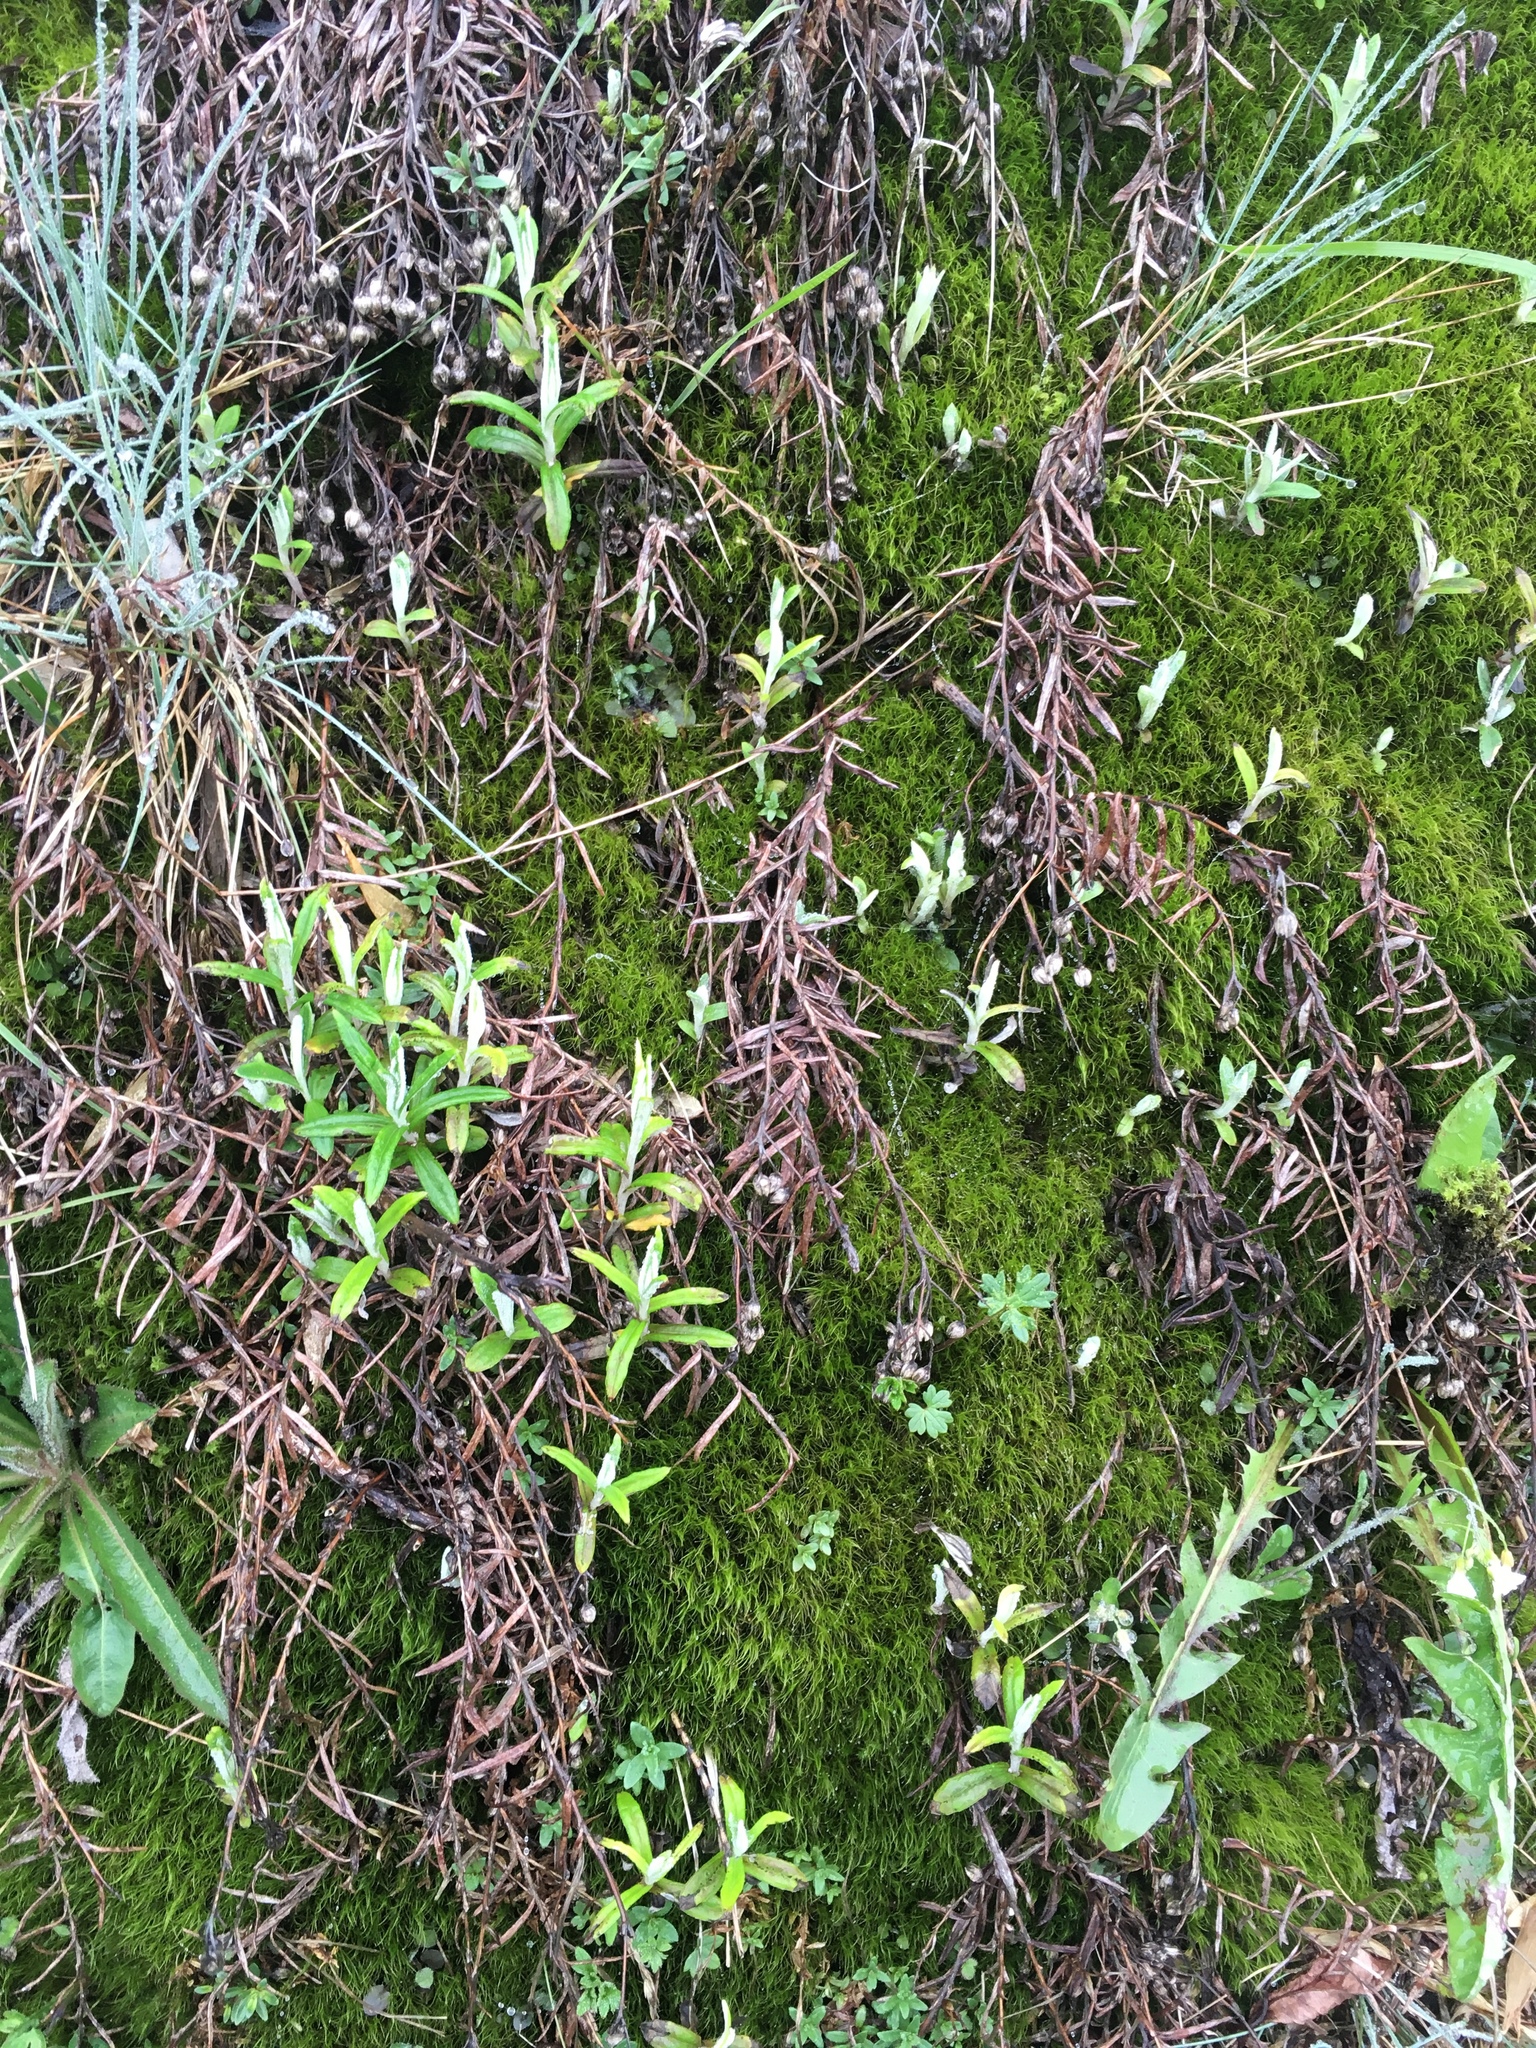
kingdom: Plantae
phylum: Tracheophyta
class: Magnoliopsida
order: Asterales
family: Asteraceae
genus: Anaphalis
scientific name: Anaphalis morrisonicola
